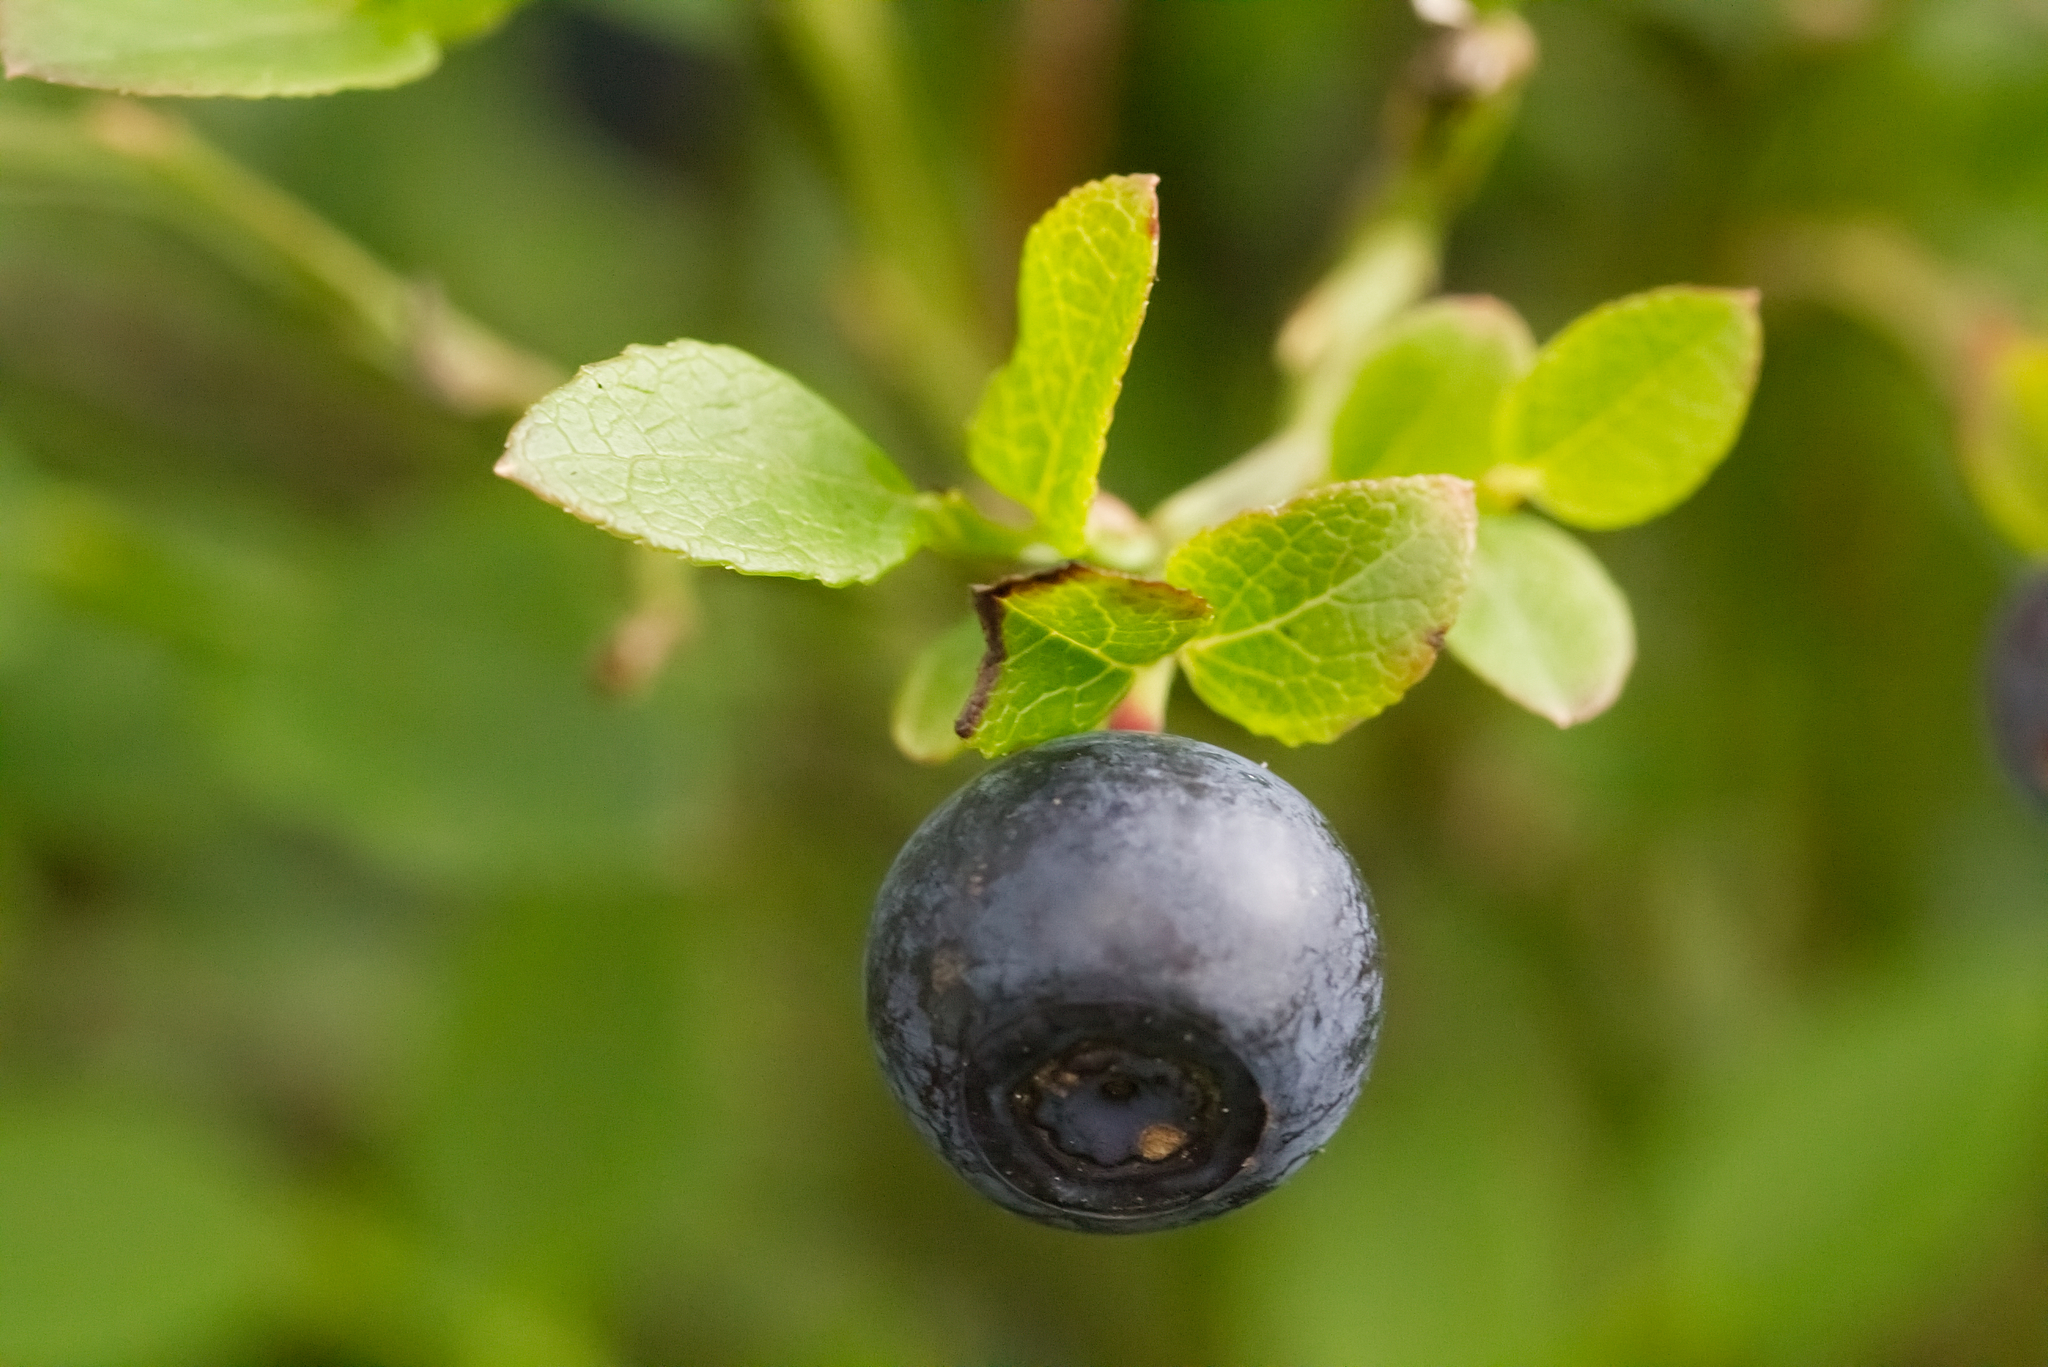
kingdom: Plantae
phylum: Tracheophyta
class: Magnoliopsida
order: Ericales
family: Ericaceae
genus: Vaccinium
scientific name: Vaccinium myrtillus
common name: Bilberry
